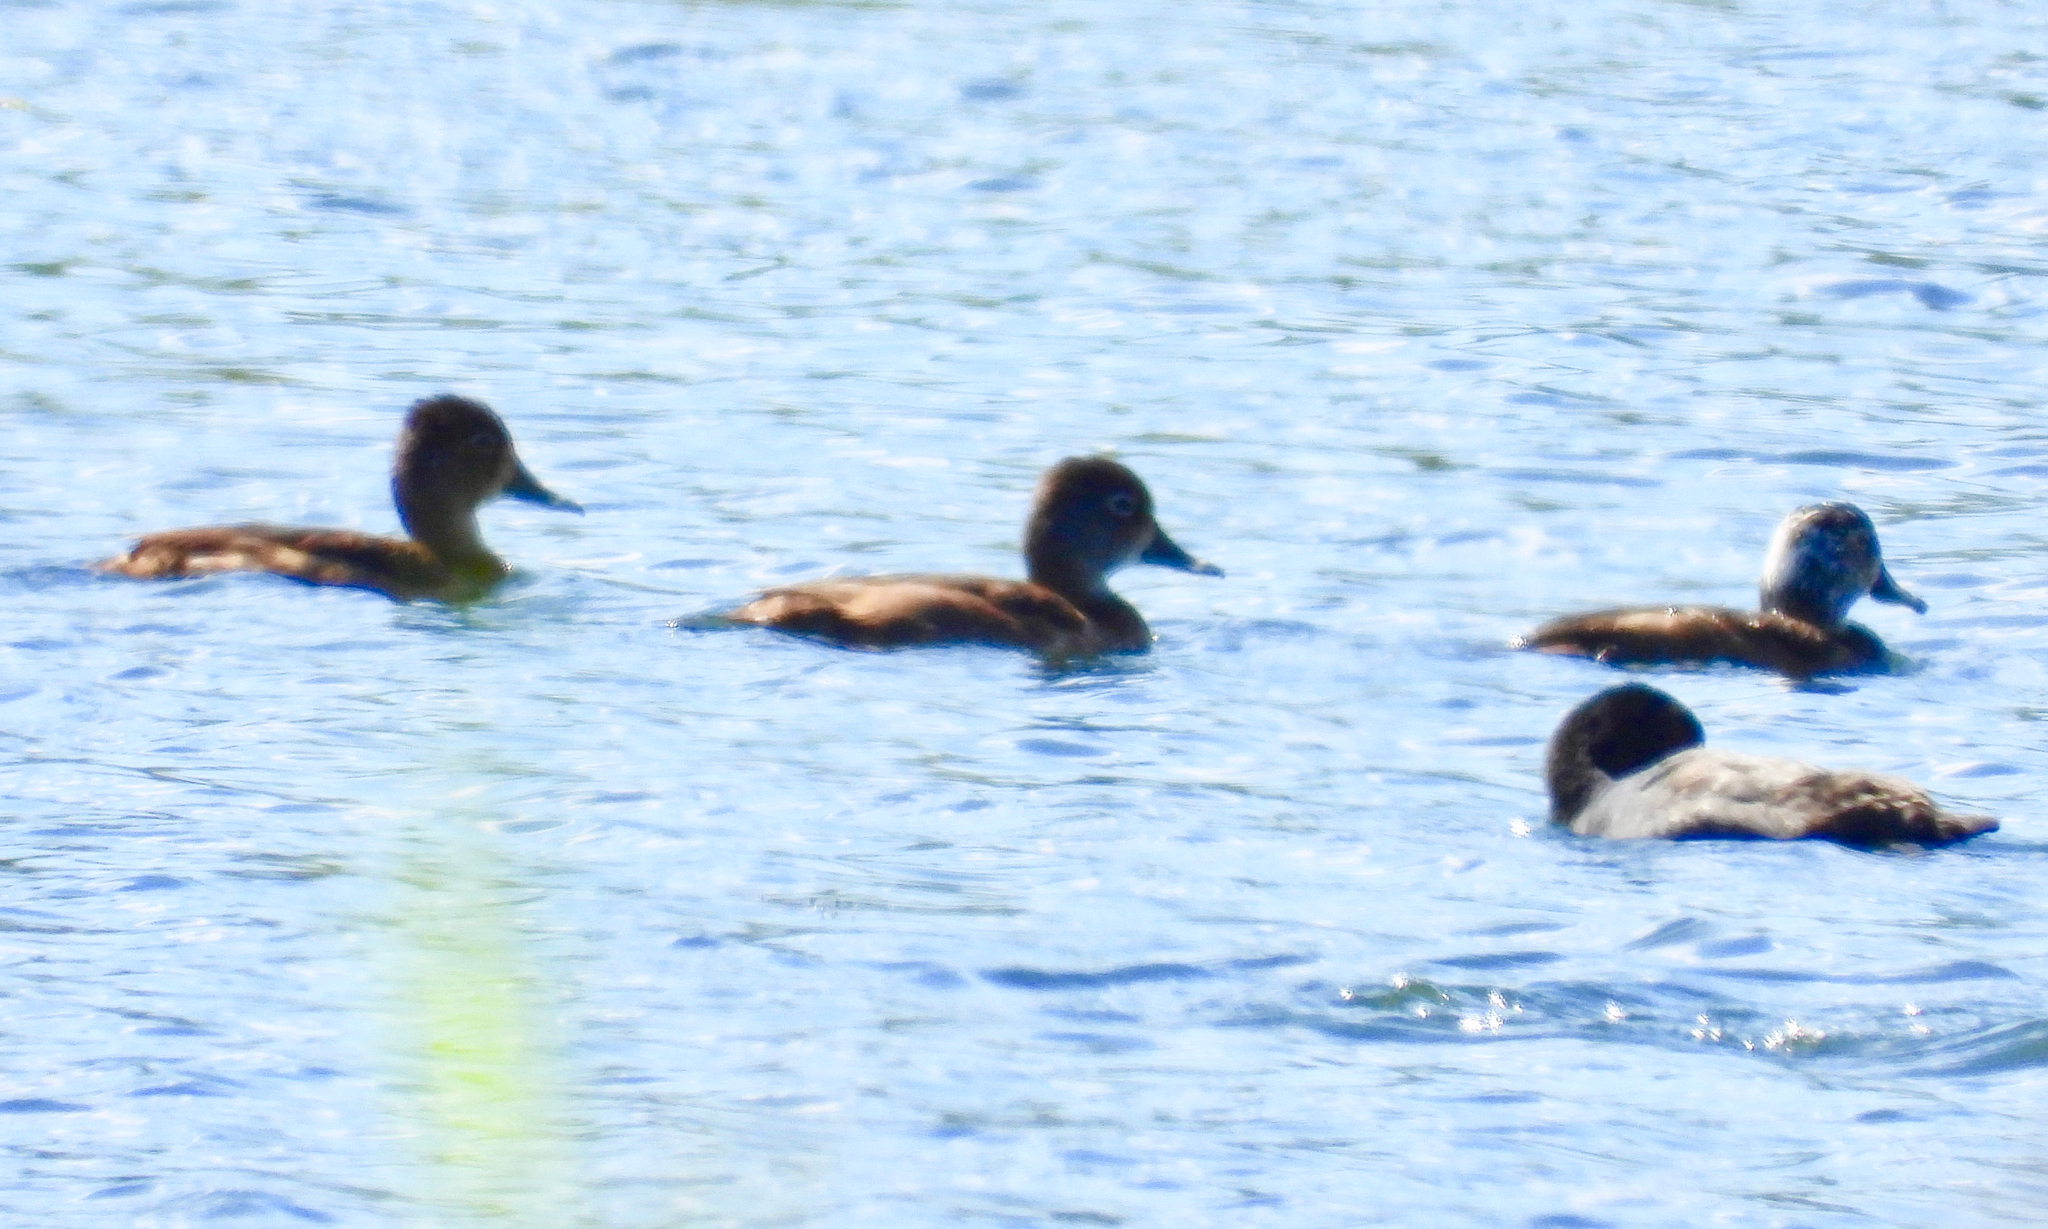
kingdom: Animalia
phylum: Chordata
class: Aves
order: Anseriformes
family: Anatidae
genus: Aythya
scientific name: Aythya collaris
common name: Ring-necked duck
